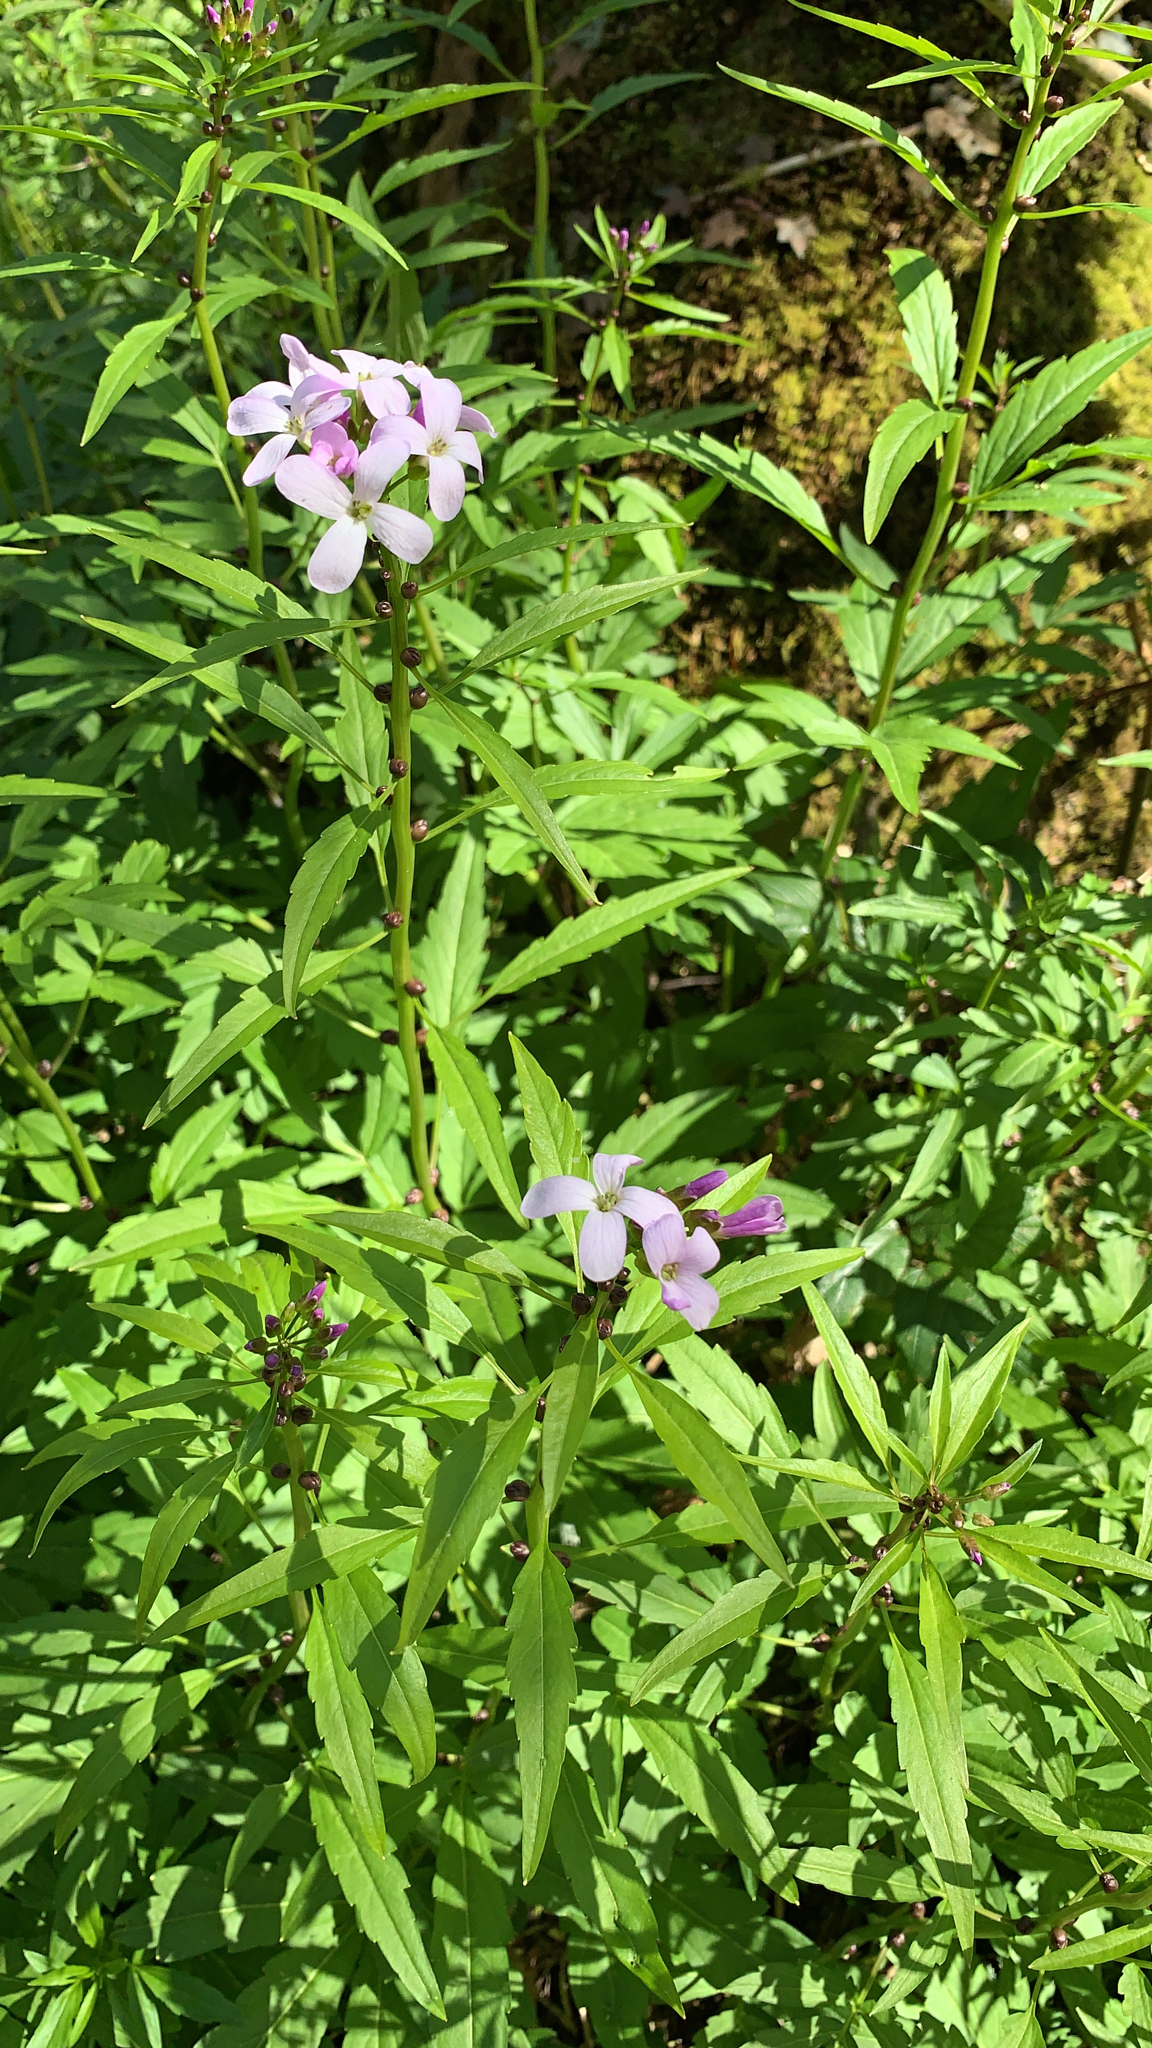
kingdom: Plantae
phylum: Tracheophyta
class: Magnoliopsida
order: Brassicales
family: Brassicaceae
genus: Cardamine
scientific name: Cardamine bulbifera
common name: Coralroot bittercress
